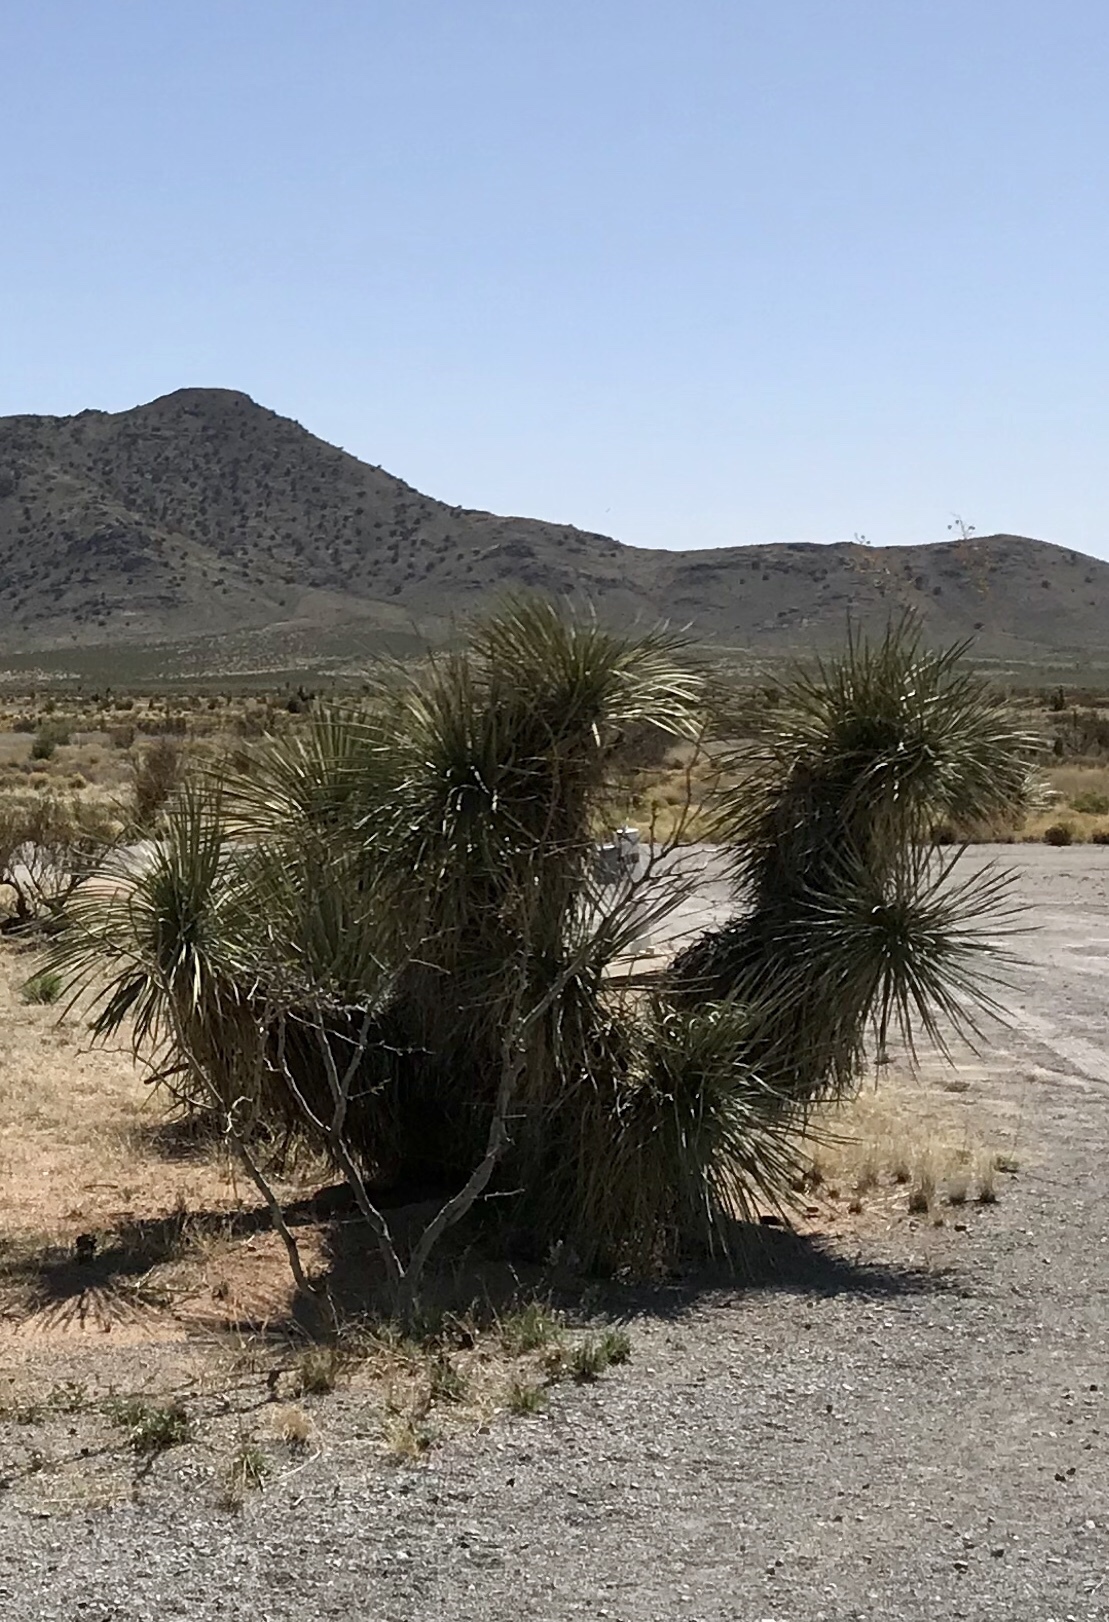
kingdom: Plantae
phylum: Tracheophyta
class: Liliopsida
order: Asparagales
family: Asparagaceae
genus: Yucca
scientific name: Yucca elata
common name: Palmella
